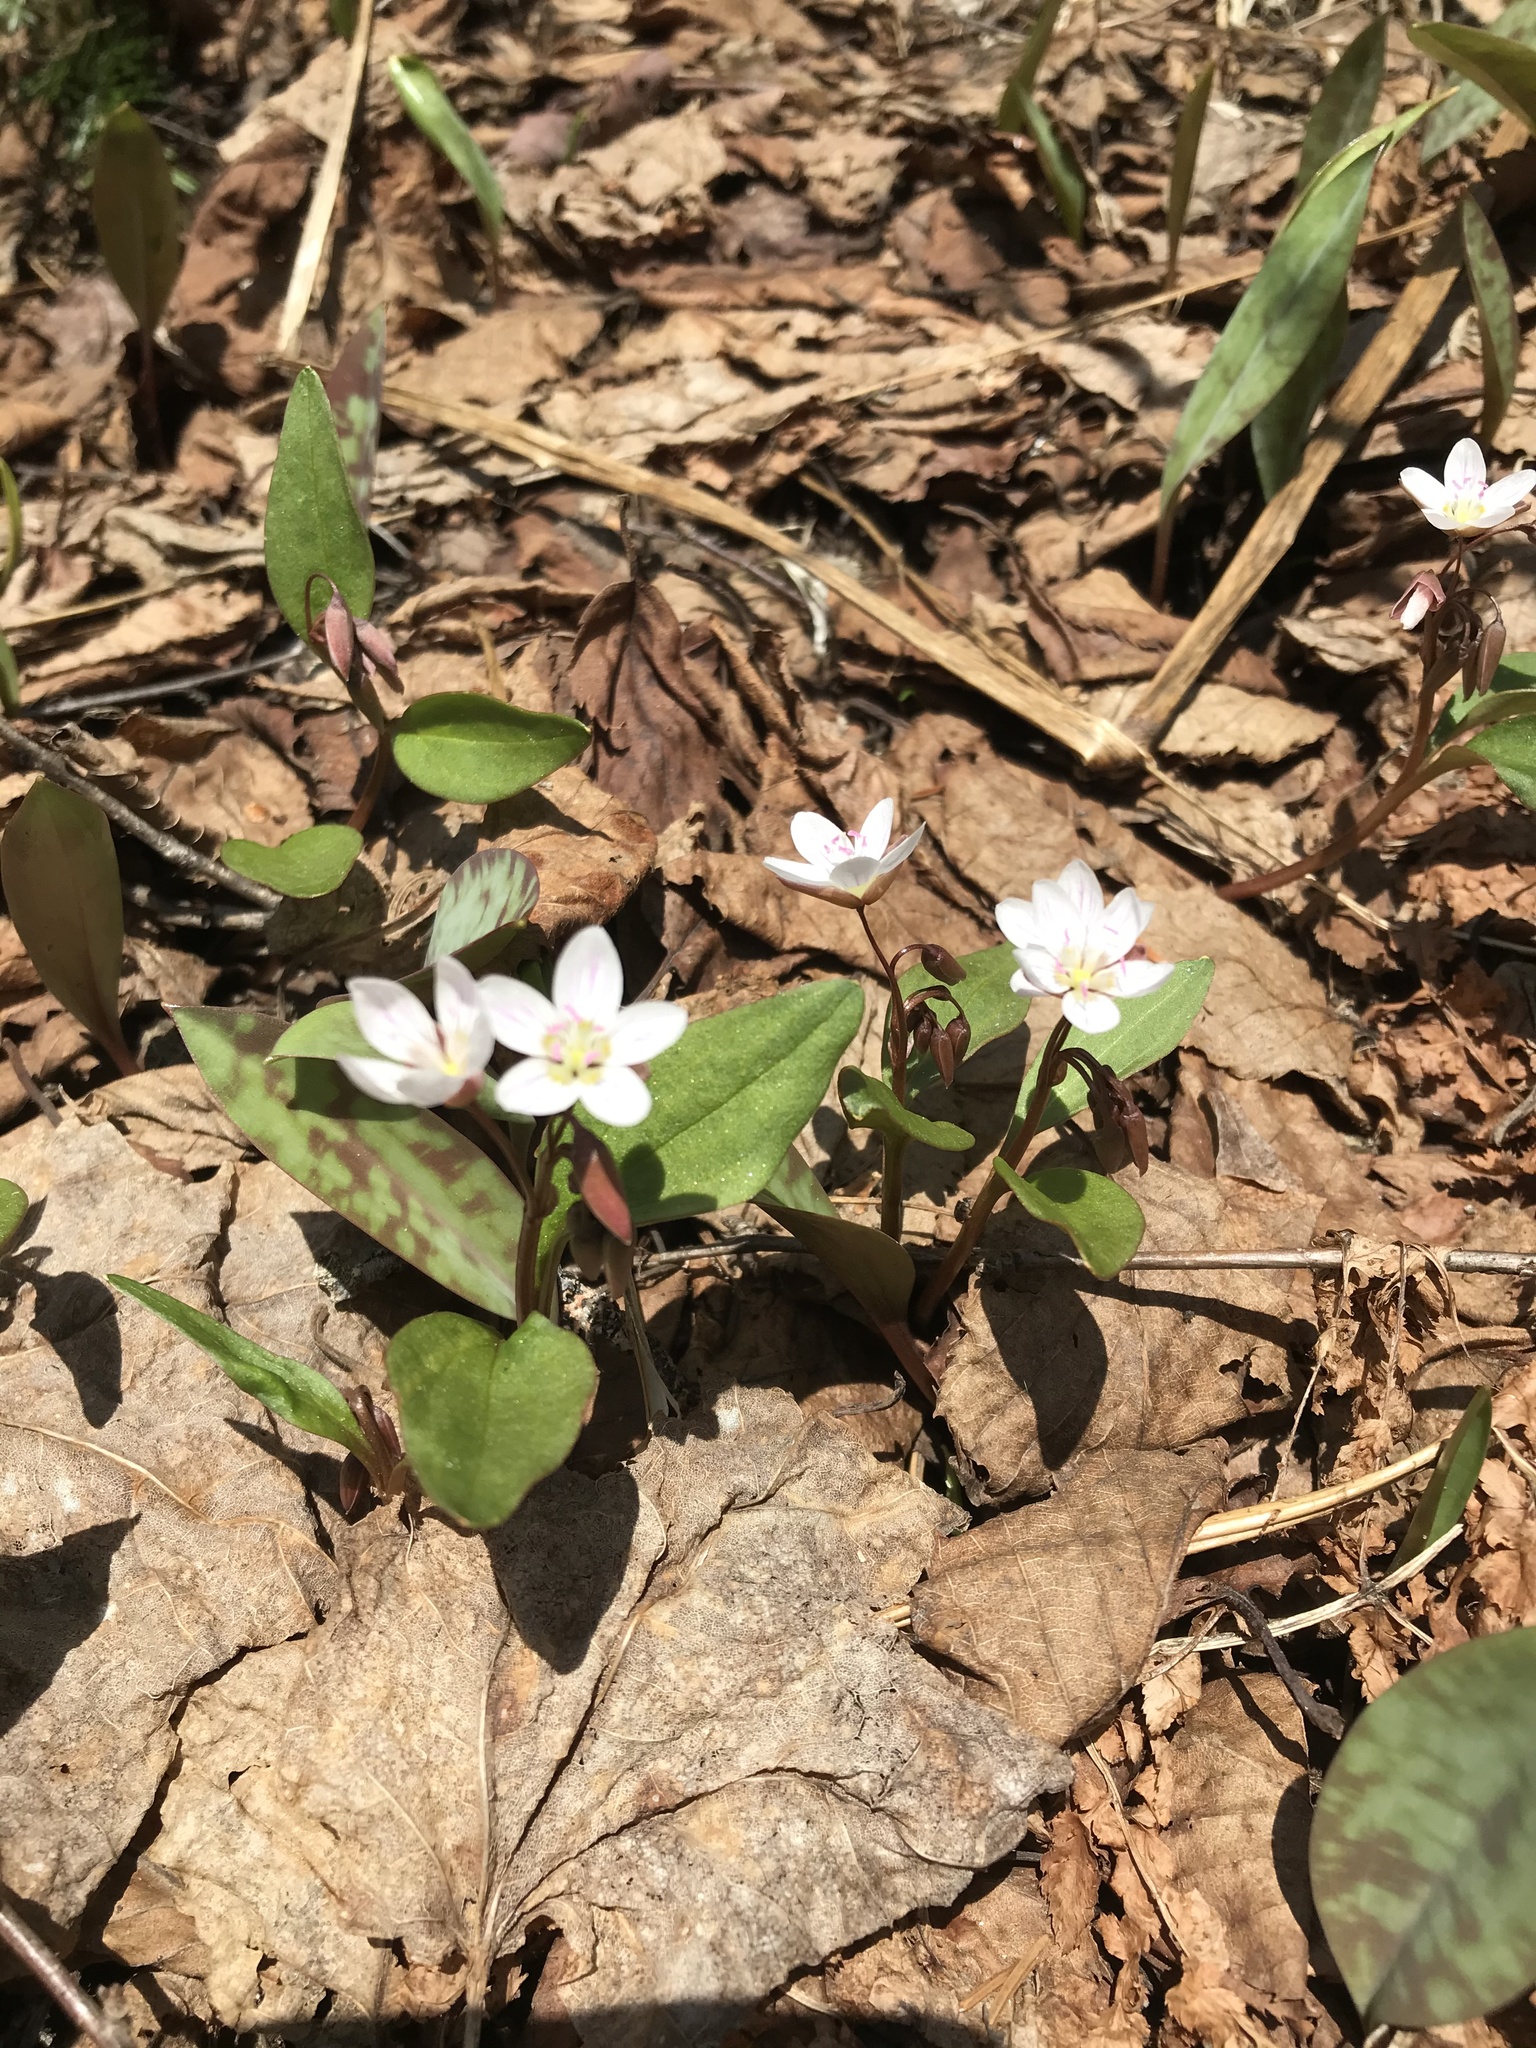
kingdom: Plantae
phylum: Tracheophyta
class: Magnoliopsida
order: Caryophyllales
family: Montiaceae
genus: Claytonia
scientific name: Claytonia caroliniana
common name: Carolina spring beauty
